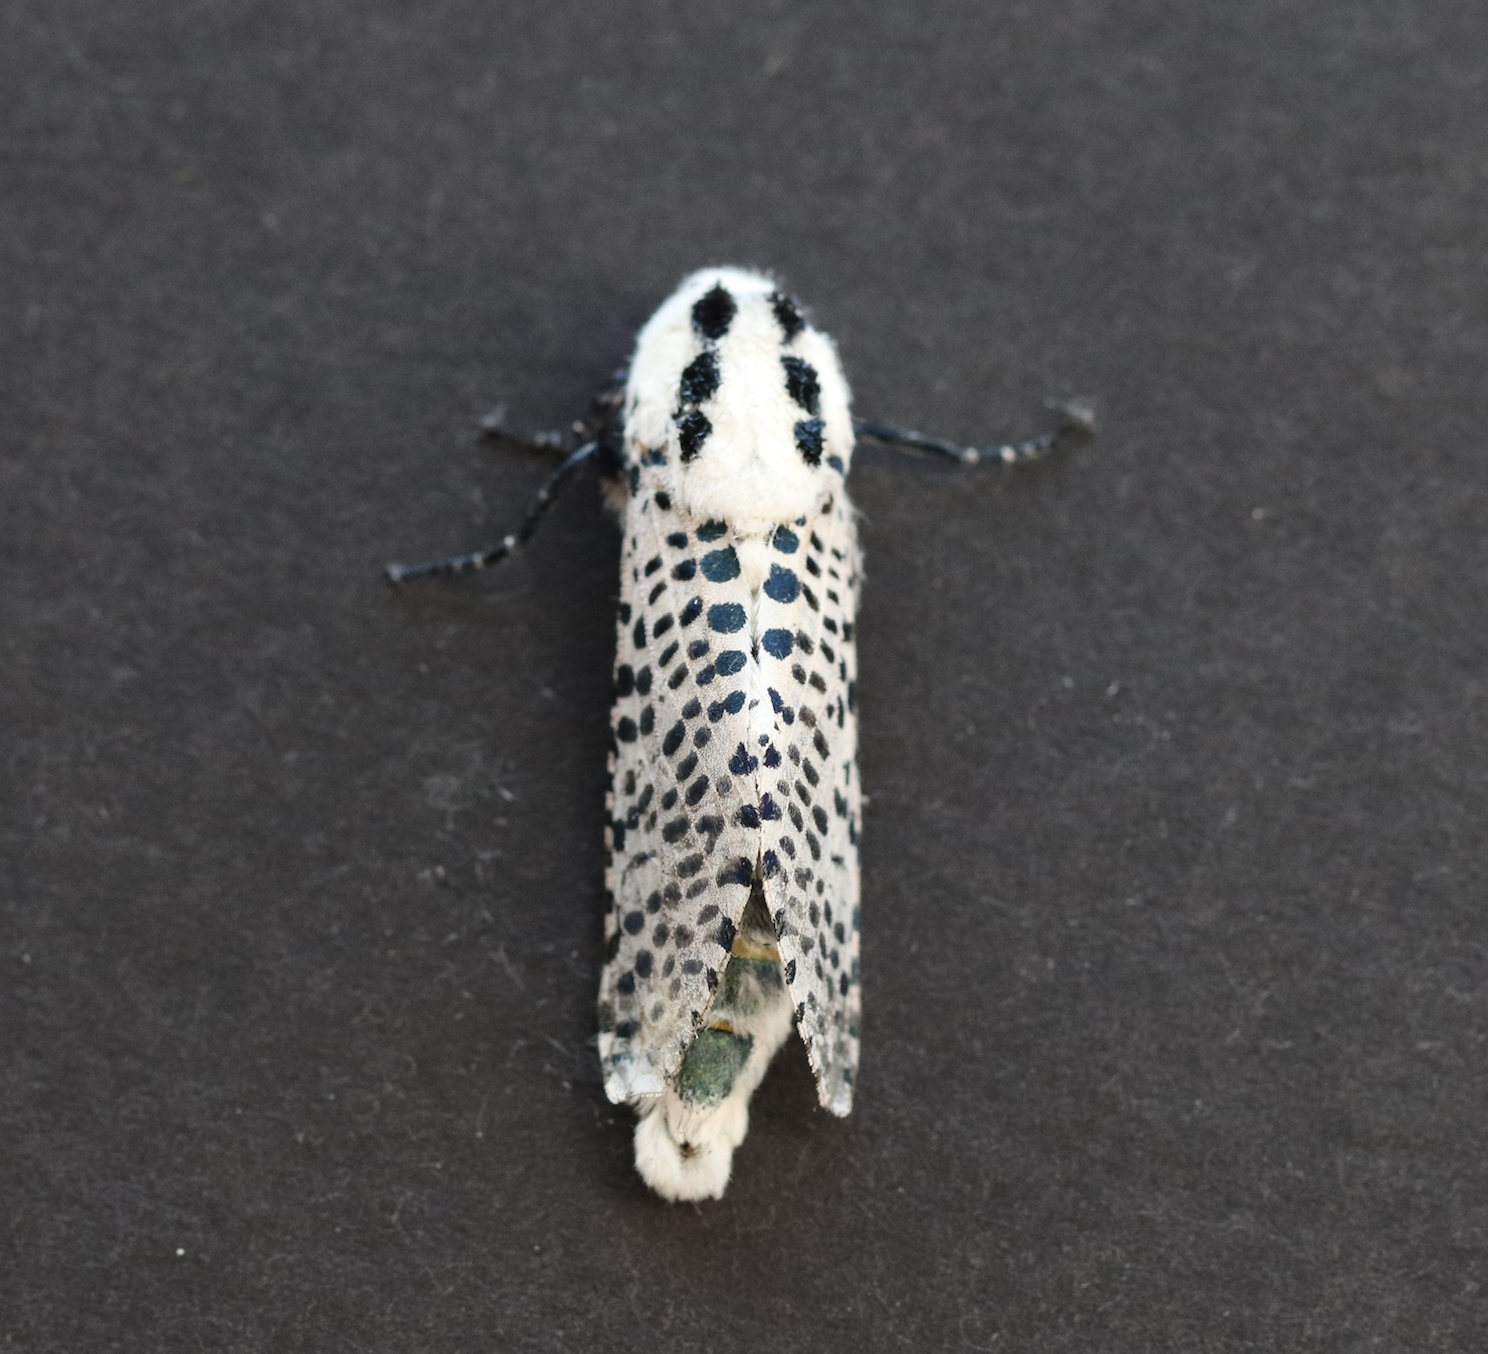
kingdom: Animalia
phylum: Arthropoda
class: Insecta
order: Lepidoptera
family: Cossidae
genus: Zeuzera
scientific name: Zeuzera pyrina
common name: Leopard moth
